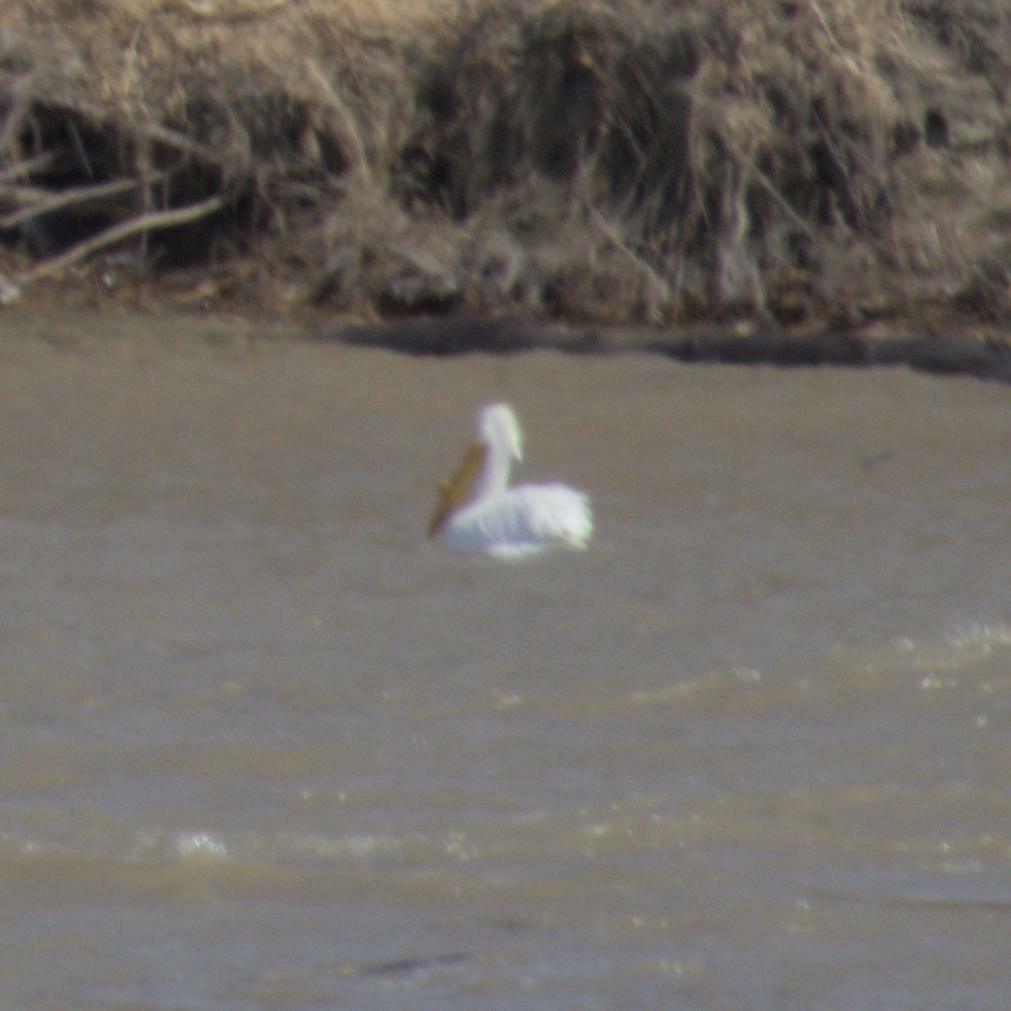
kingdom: Animalia
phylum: Chordata
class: Aves
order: Pelecaniformes
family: Pelecanidae
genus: Pelecanus
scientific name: Pelecanus erythrorhynchos
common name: American white pelican
